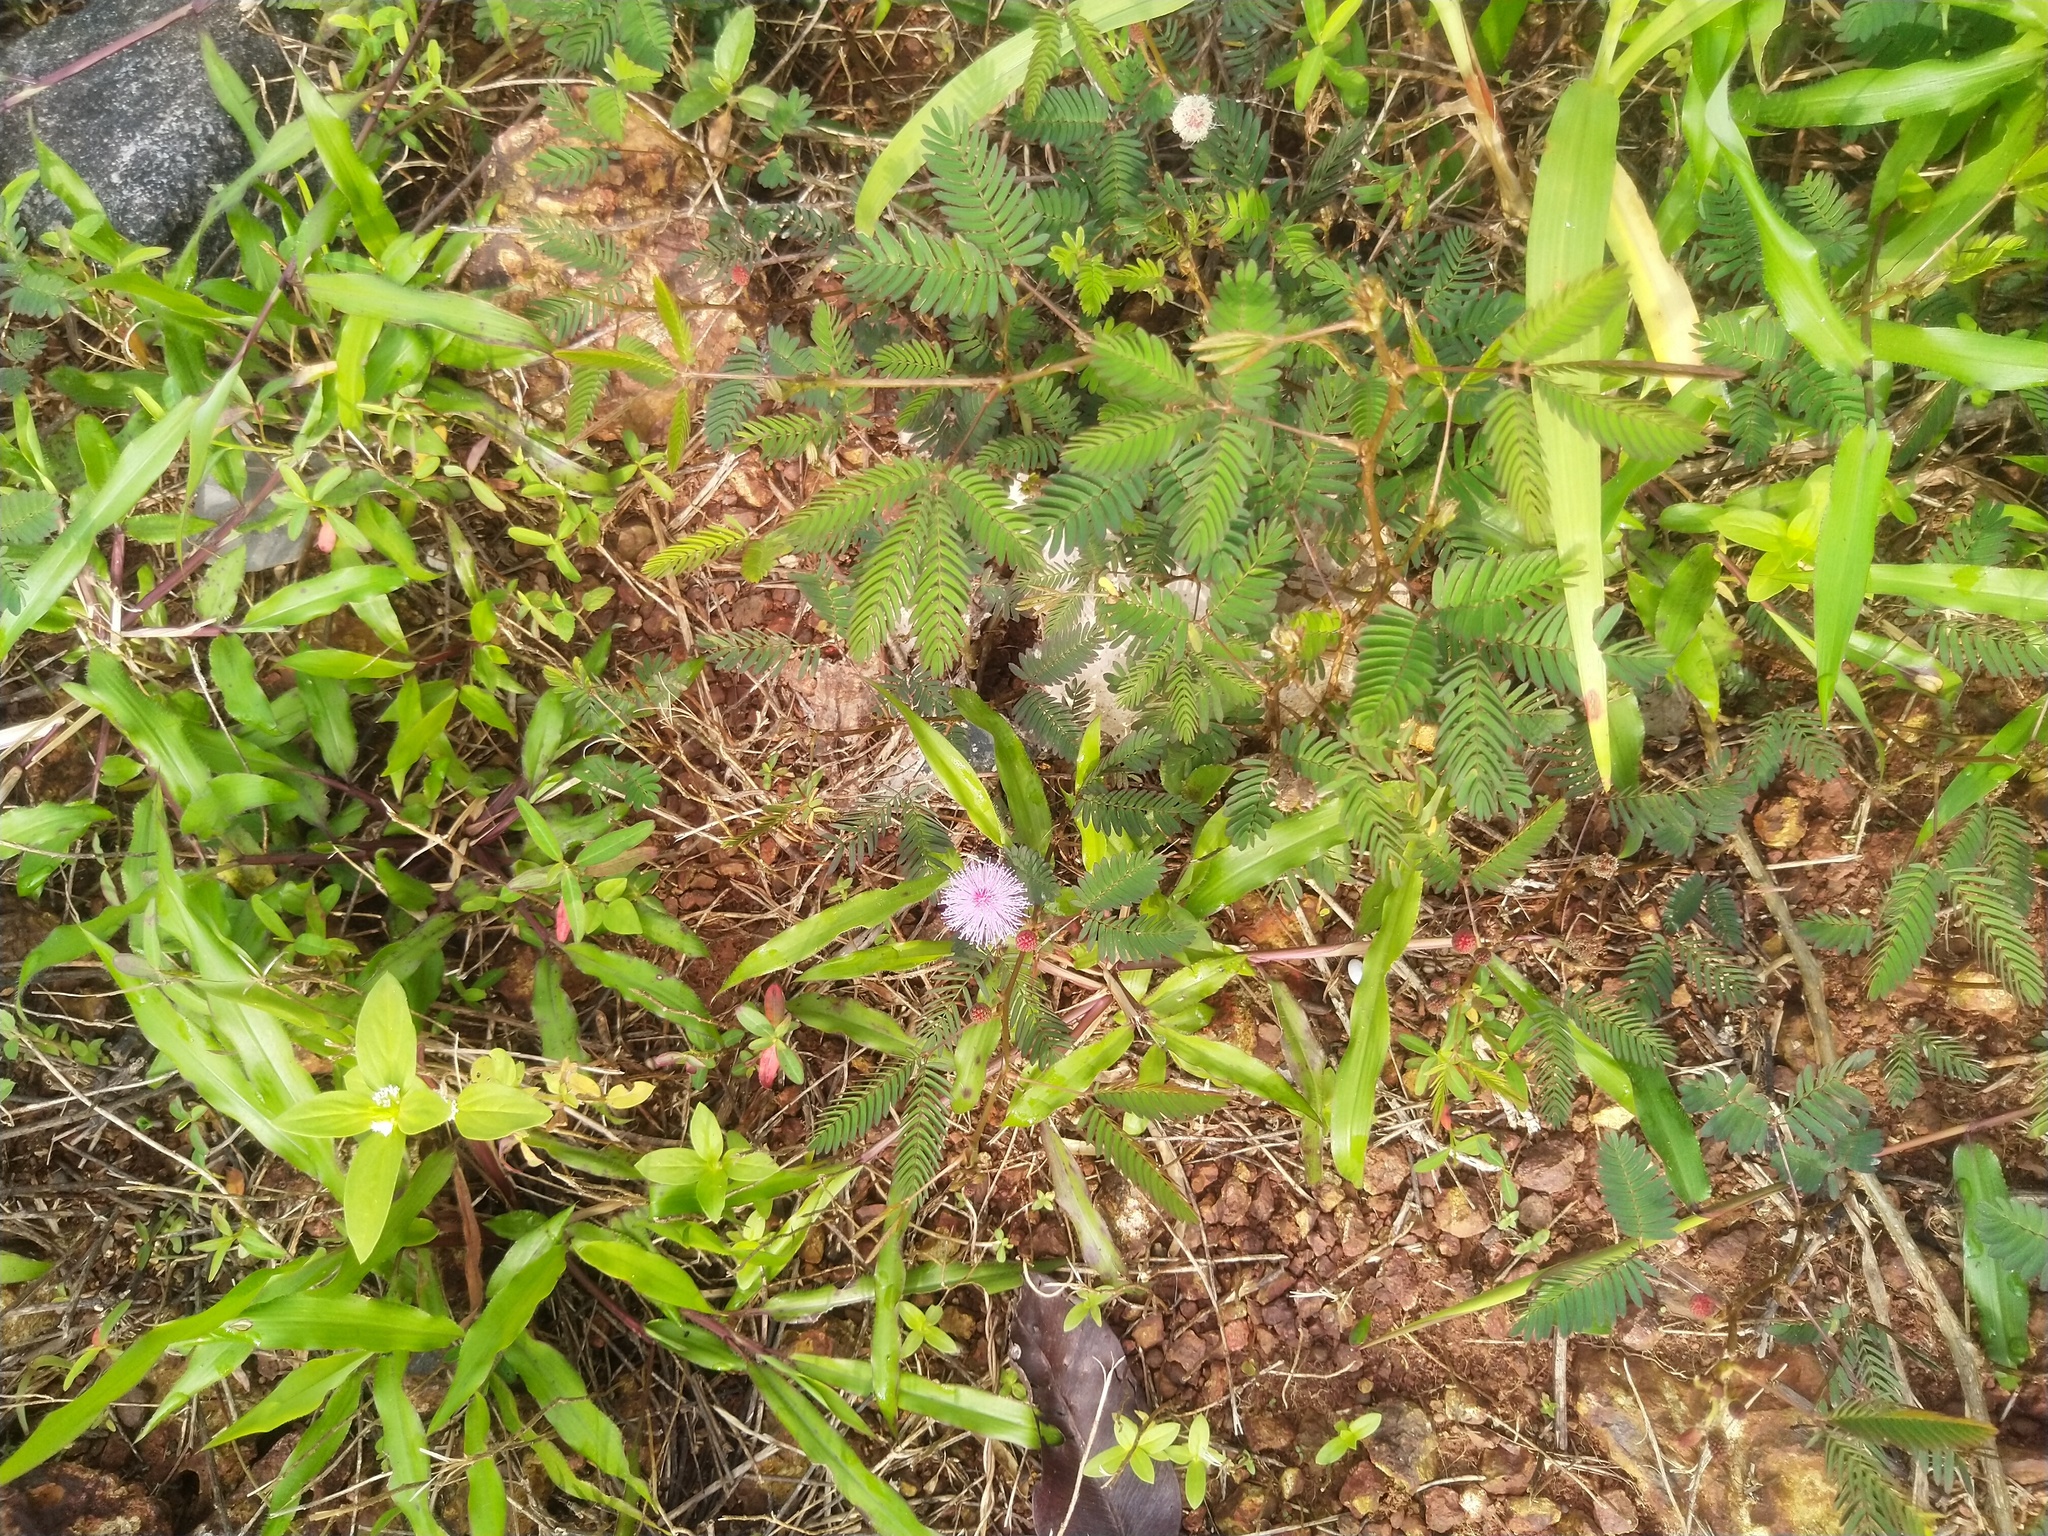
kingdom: Plantae
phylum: Tracheophyta
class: Magnoliopsida
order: Fabales
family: Fabaceae
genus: Mimosa
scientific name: Mimosa pudica
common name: Sensitive plant
